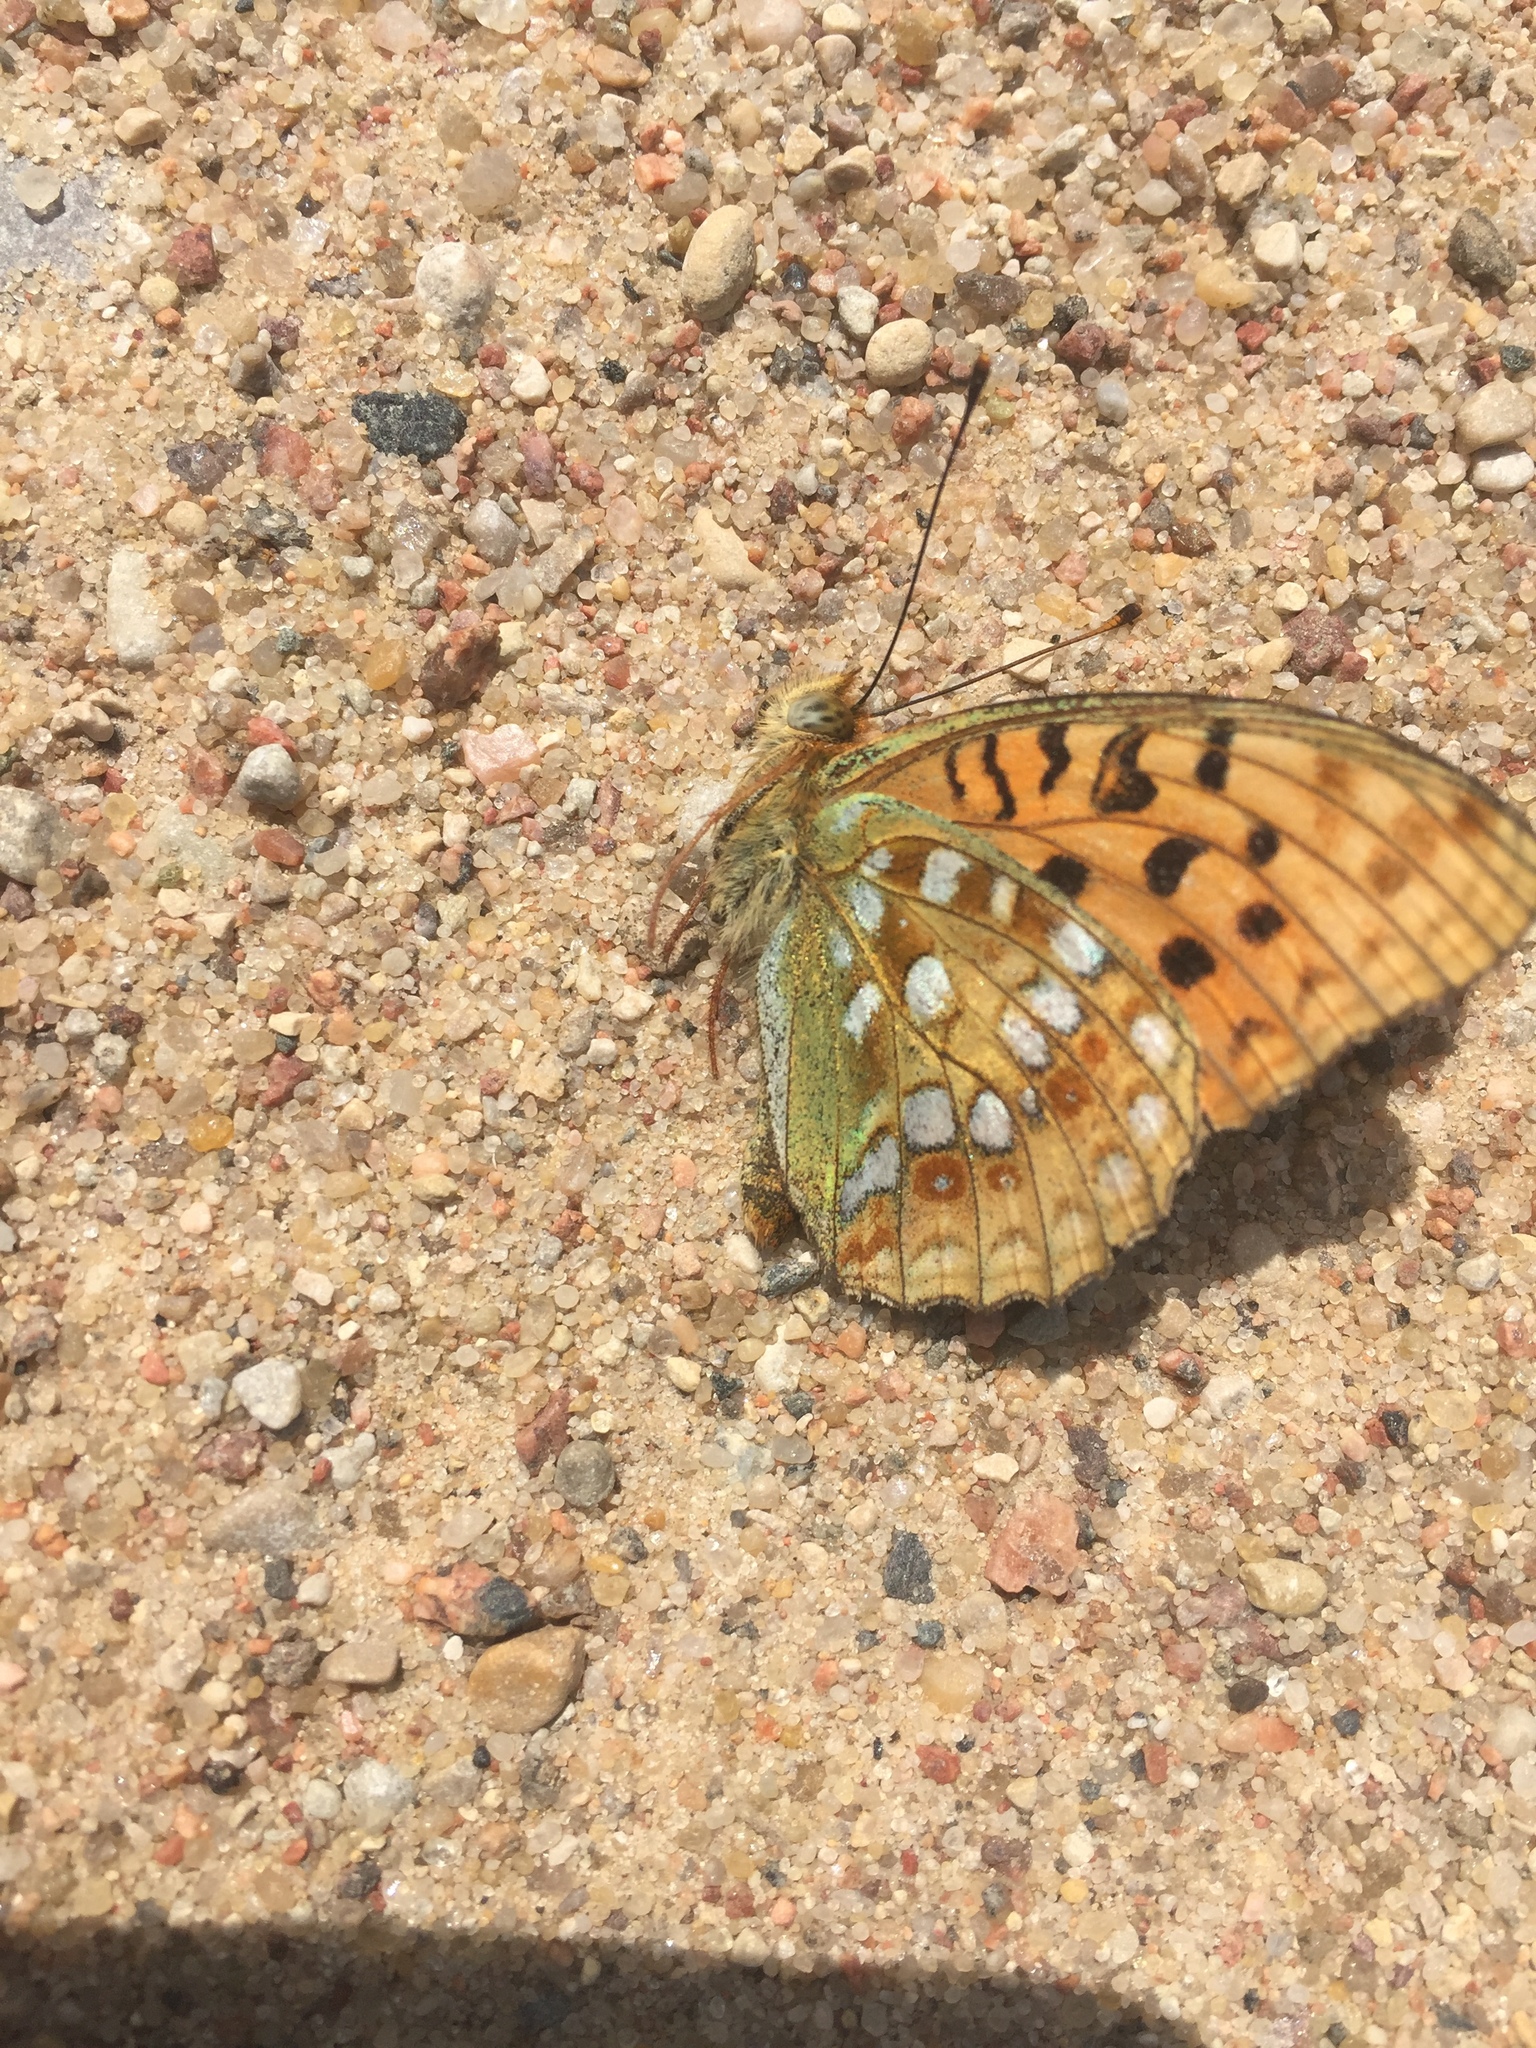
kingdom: Animalia
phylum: Arthropoda
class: Insecta
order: Lepidoptera
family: Nymphalidae
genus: Fabriciana
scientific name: Fabriciana adippe
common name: High brown fritillary
